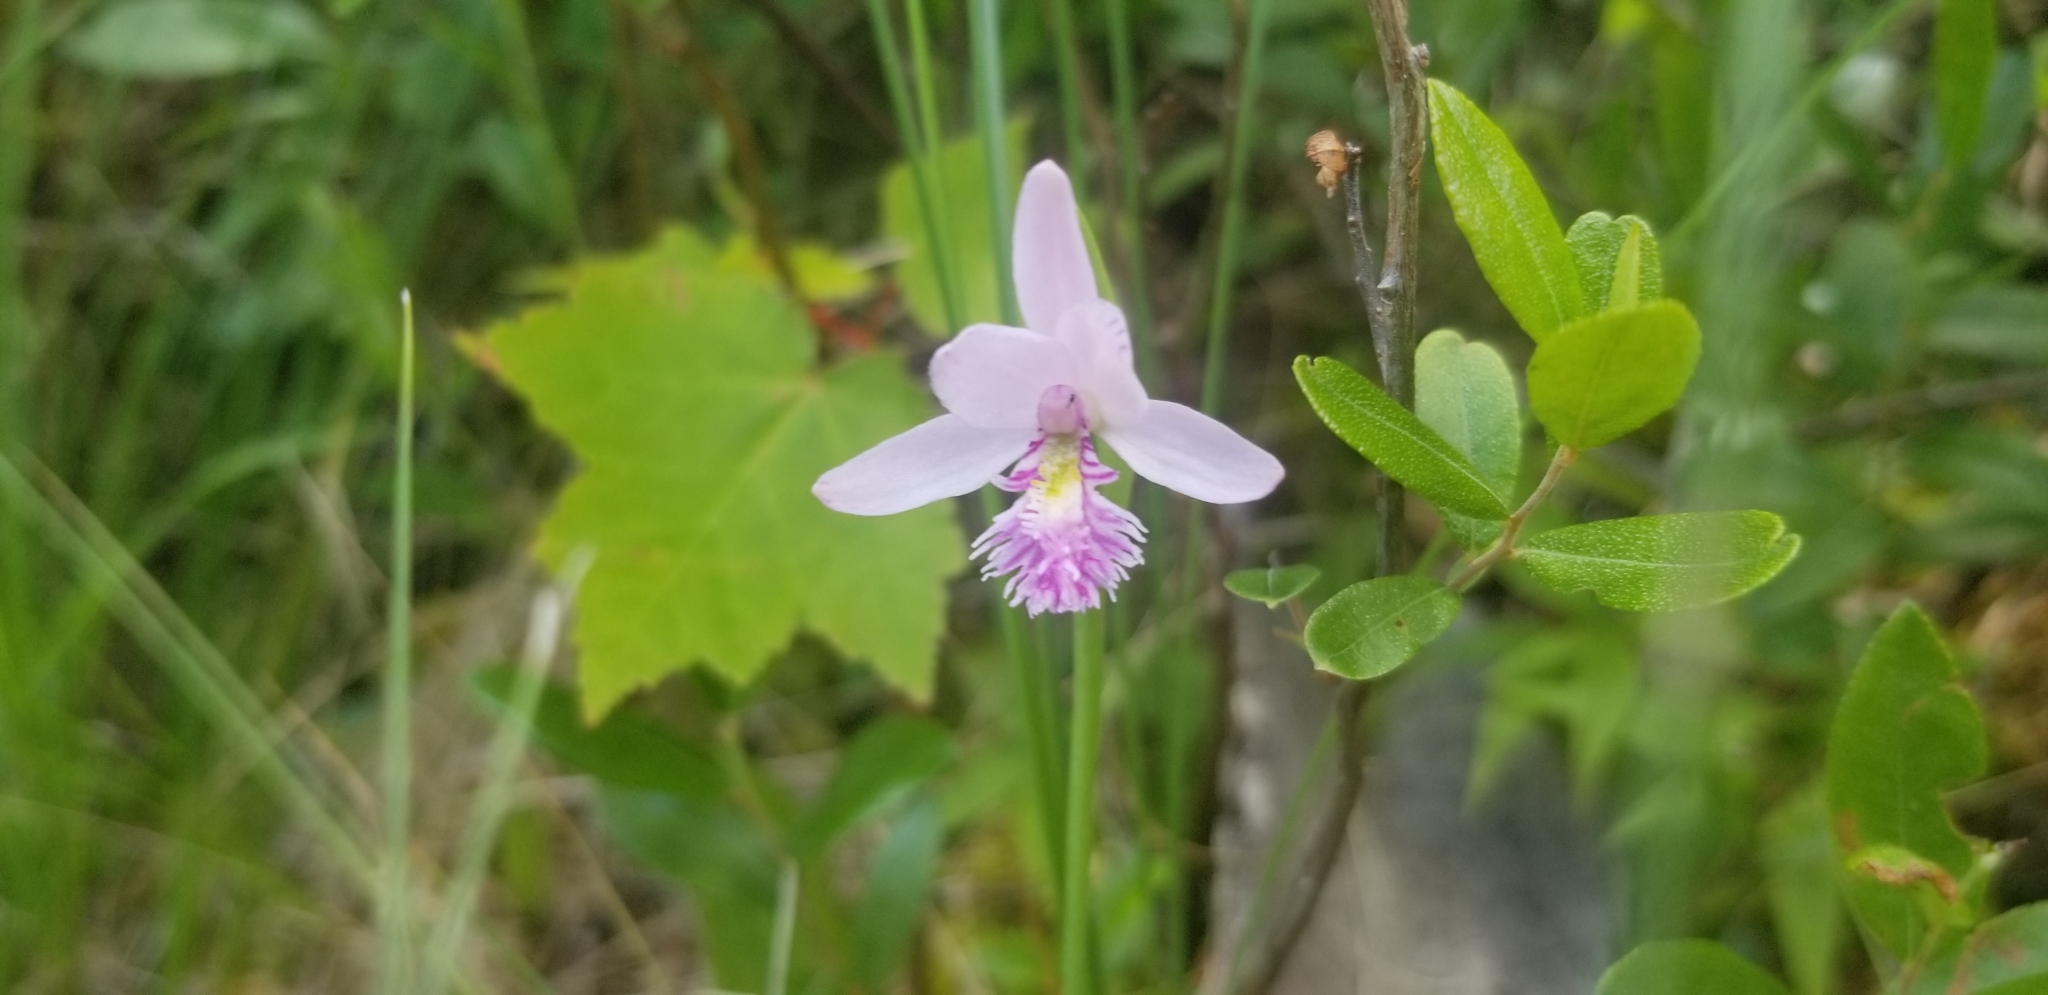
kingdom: Plantae
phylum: Tracheophyta
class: Liliopsida
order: Asparagales
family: Orchidaceae
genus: Pogonia
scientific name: Pogonia ophioglossoides
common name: Rose pogonia
